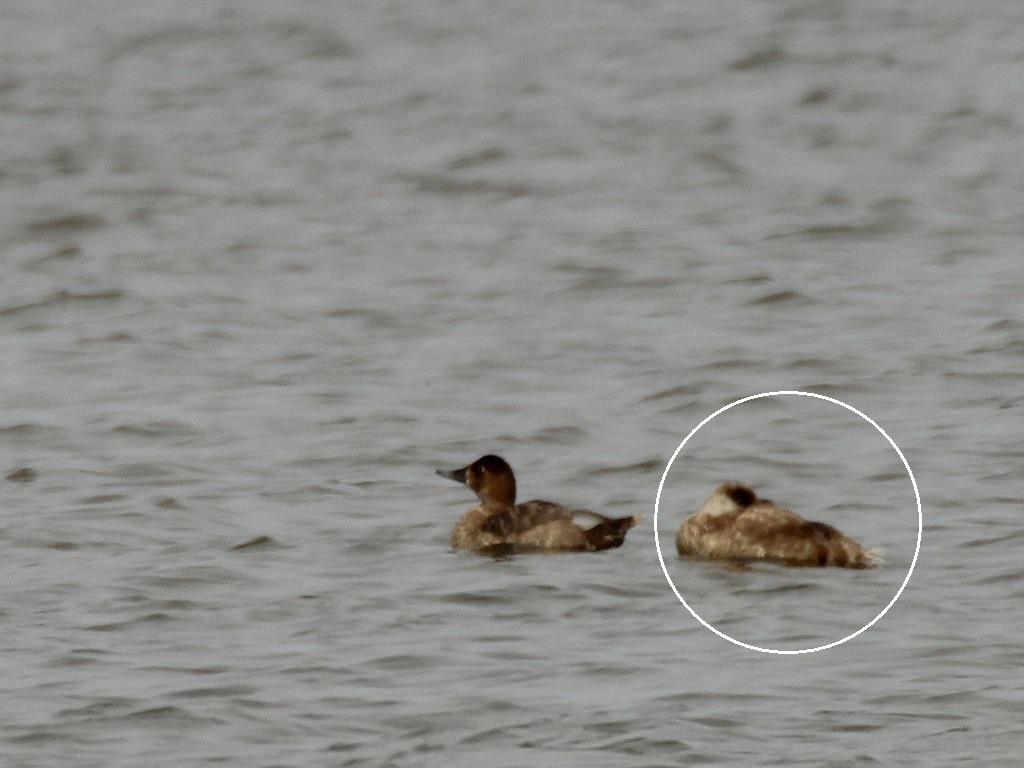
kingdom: Animalia
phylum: Chordata
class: Aves
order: Anseriformes
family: Anatidae
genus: Netta
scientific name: Netta rufina
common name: Red-crested pochard
